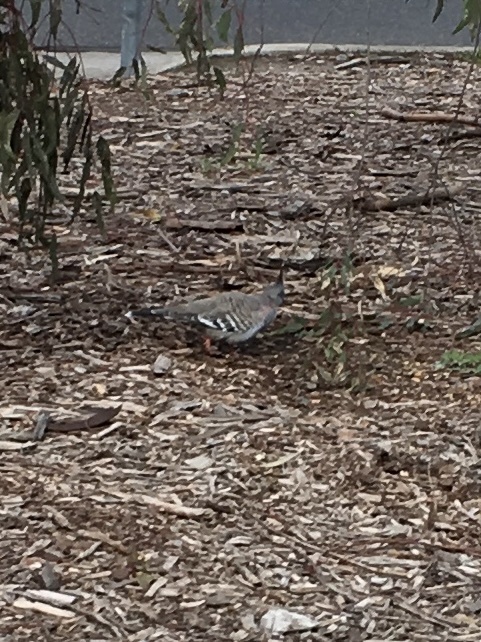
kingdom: Animalia
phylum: Chordata
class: Aves
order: Columbiformes
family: Columbidae
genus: Ocyphaps
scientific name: Ocyphaps lophotes
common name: Crested pigeon
